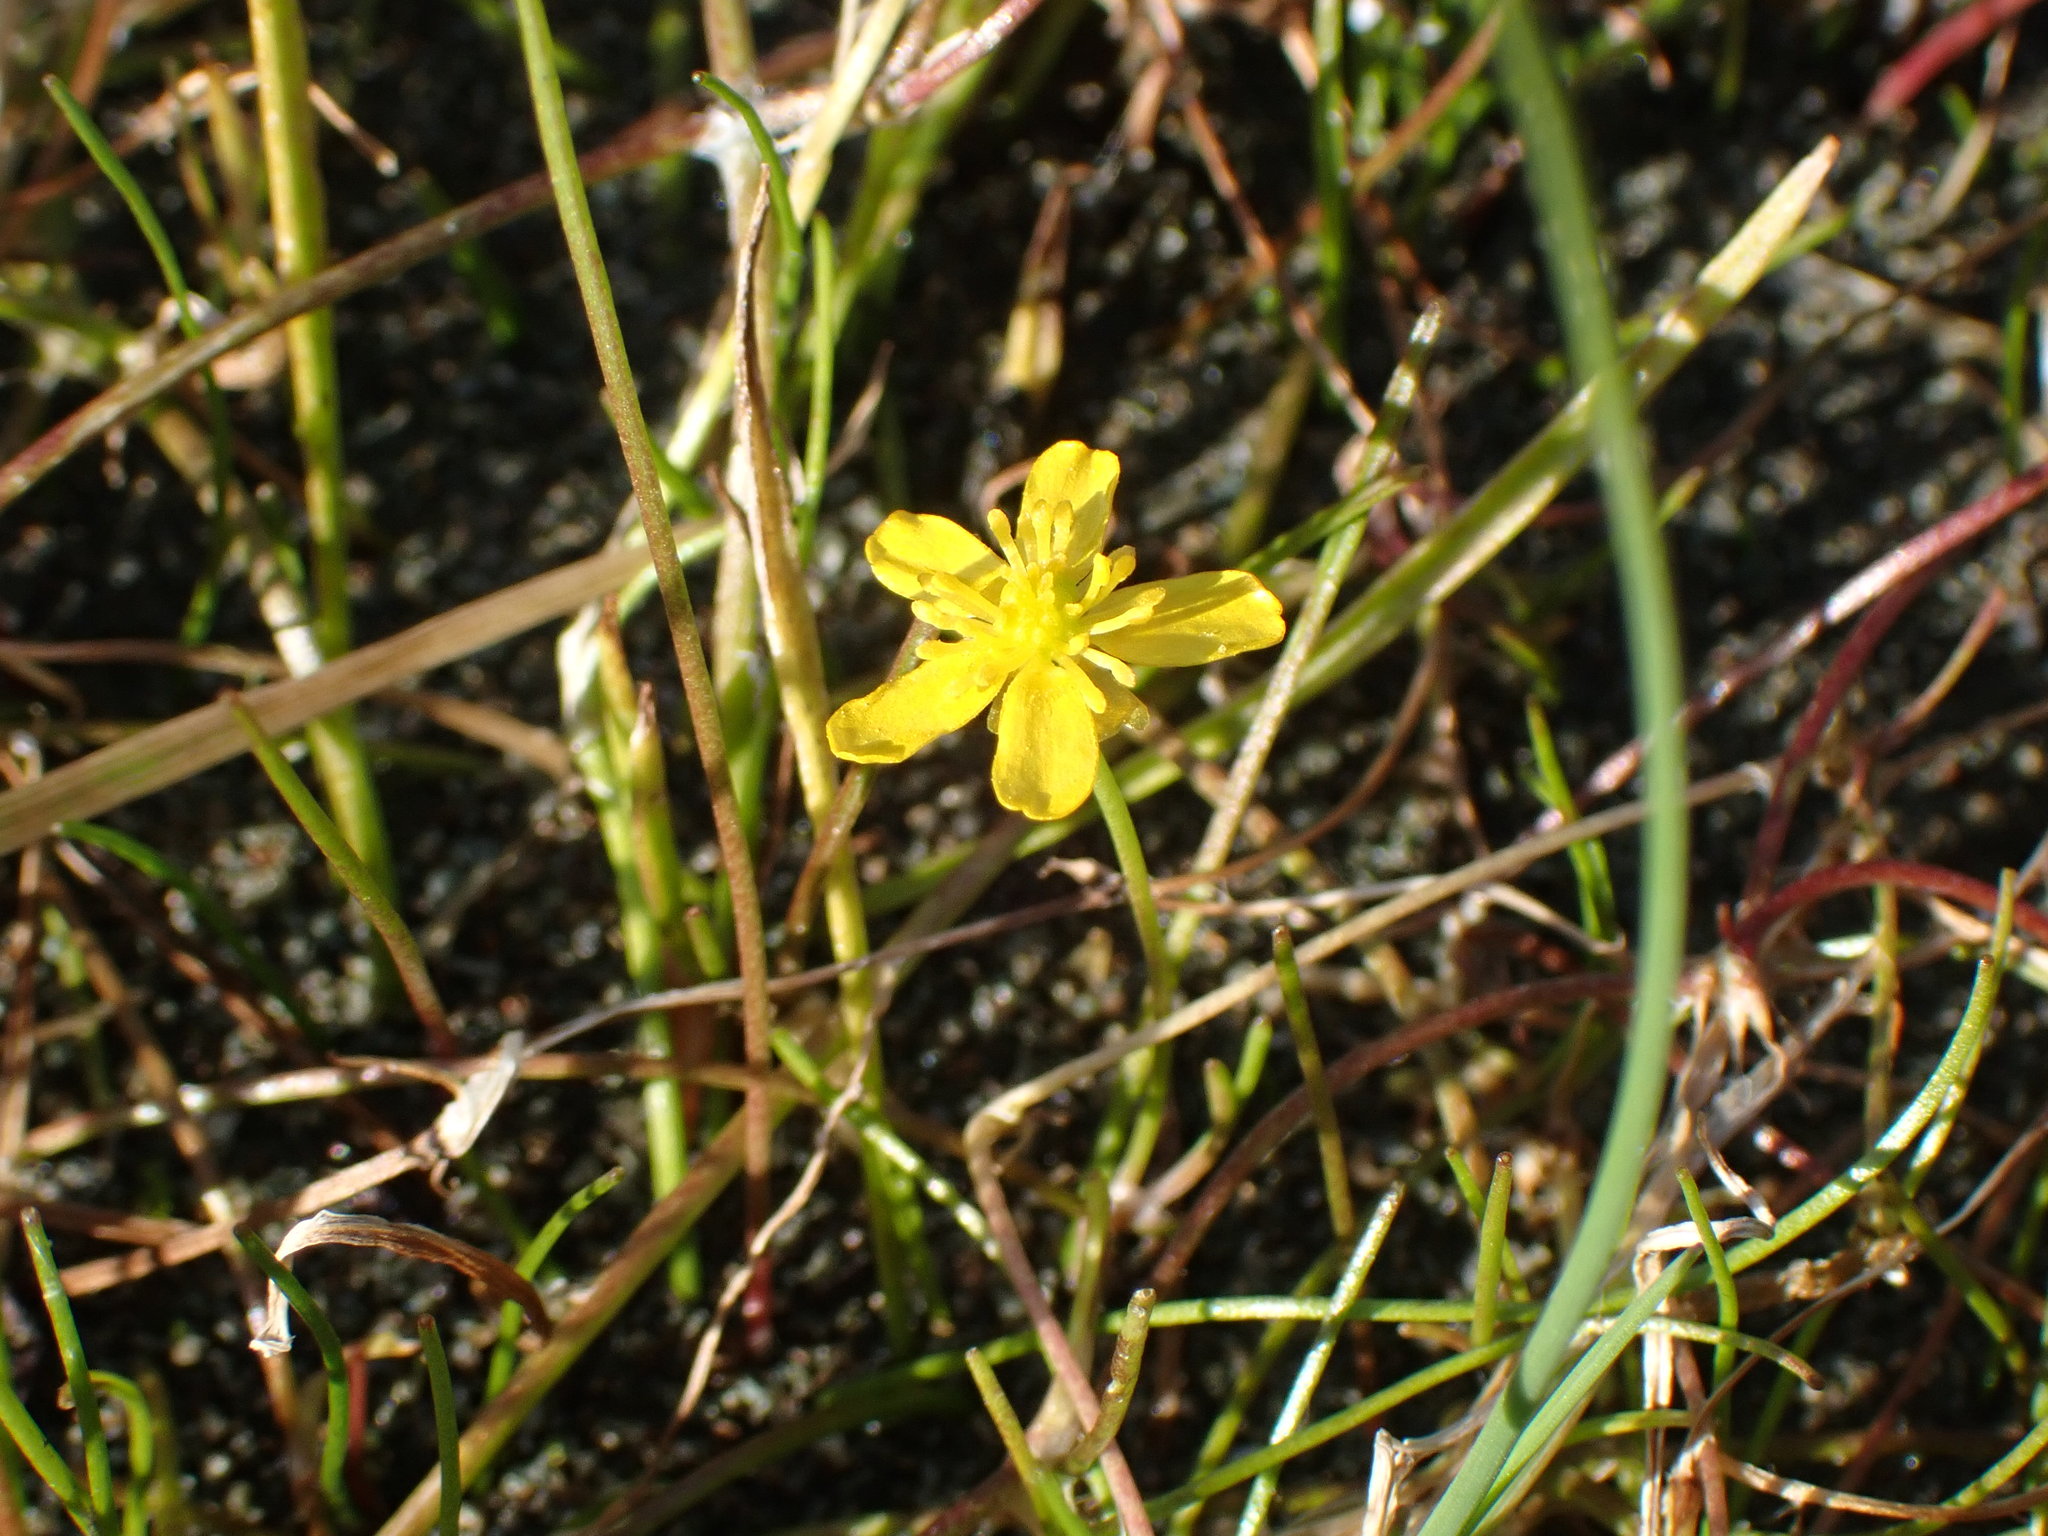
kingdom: Plantae
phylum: Tracheophyta
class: Magnoliopsida
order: Ranunculales
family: Ranunculaceae
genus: Ranunculus
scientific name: Ranunculus flammula
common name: Lesser spearwort
